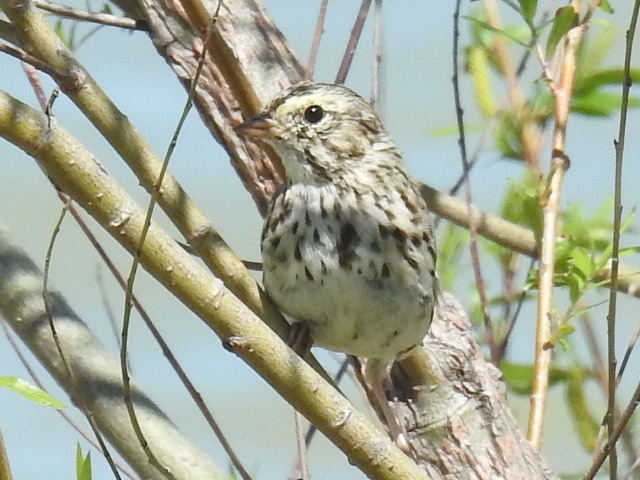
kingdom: Animalia
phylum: Chordata
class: Aves
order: Passeriformes
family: Passerellidae
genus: Passerculus
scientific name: Passerculus sandwichensis
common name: Savannah sparrow
